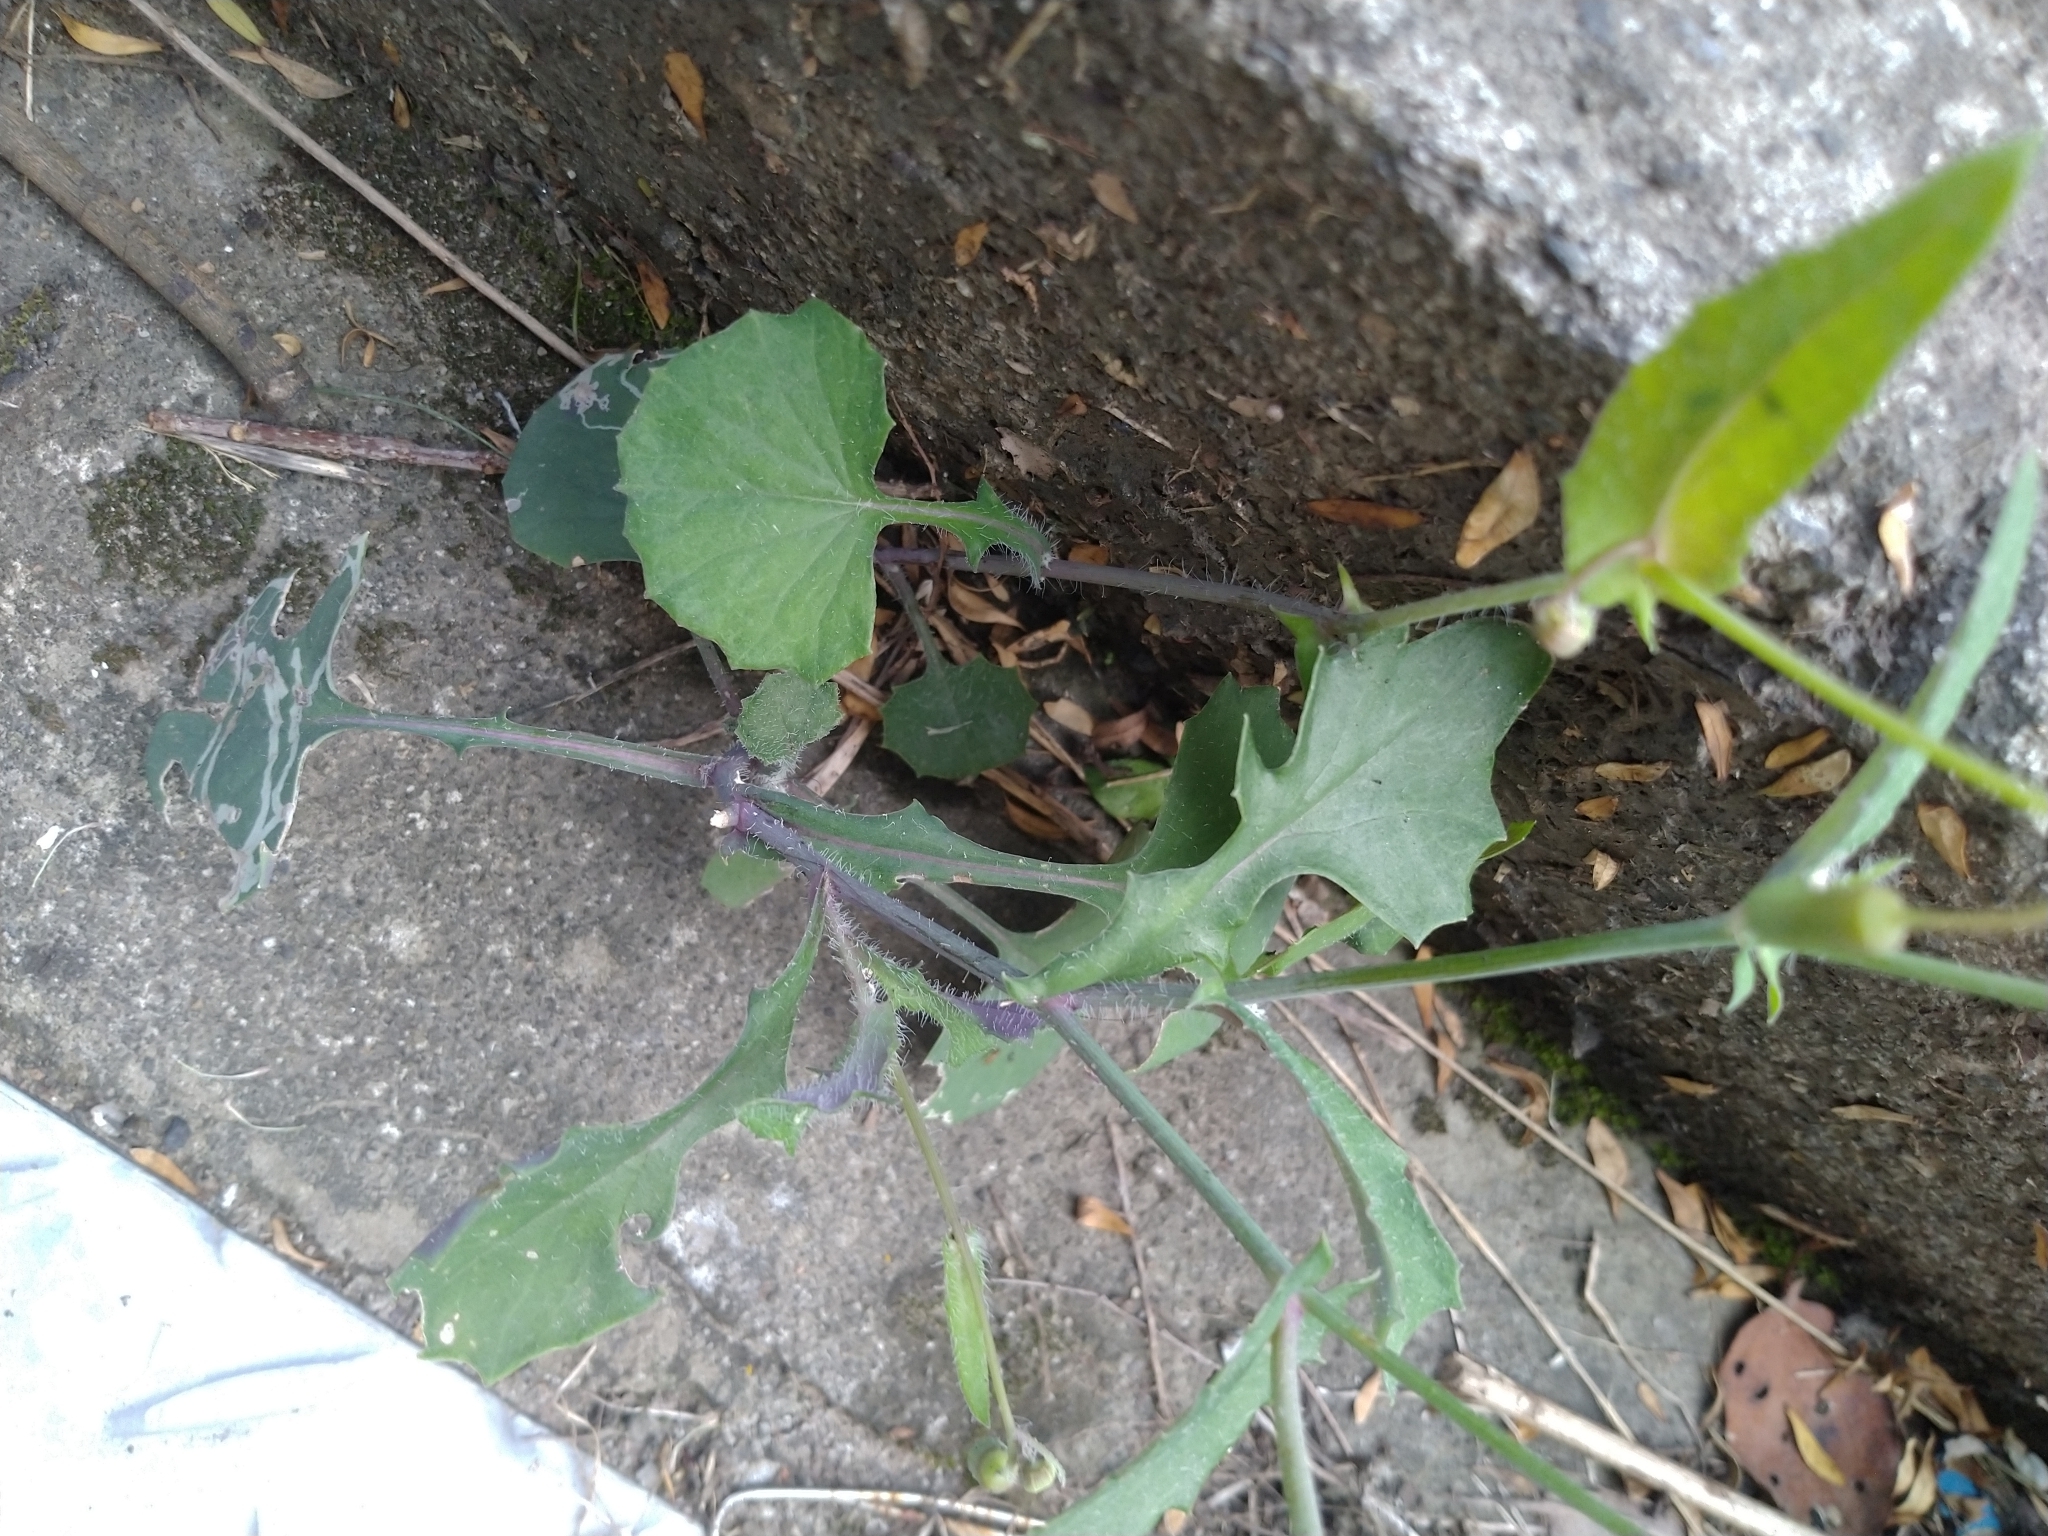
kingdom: Plantae
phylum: Tracheophyta
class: Magnoliopsida
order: Asterales
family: Asteraceae
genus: Emilia
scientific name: Emilia javanica
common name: Tassel-flower
